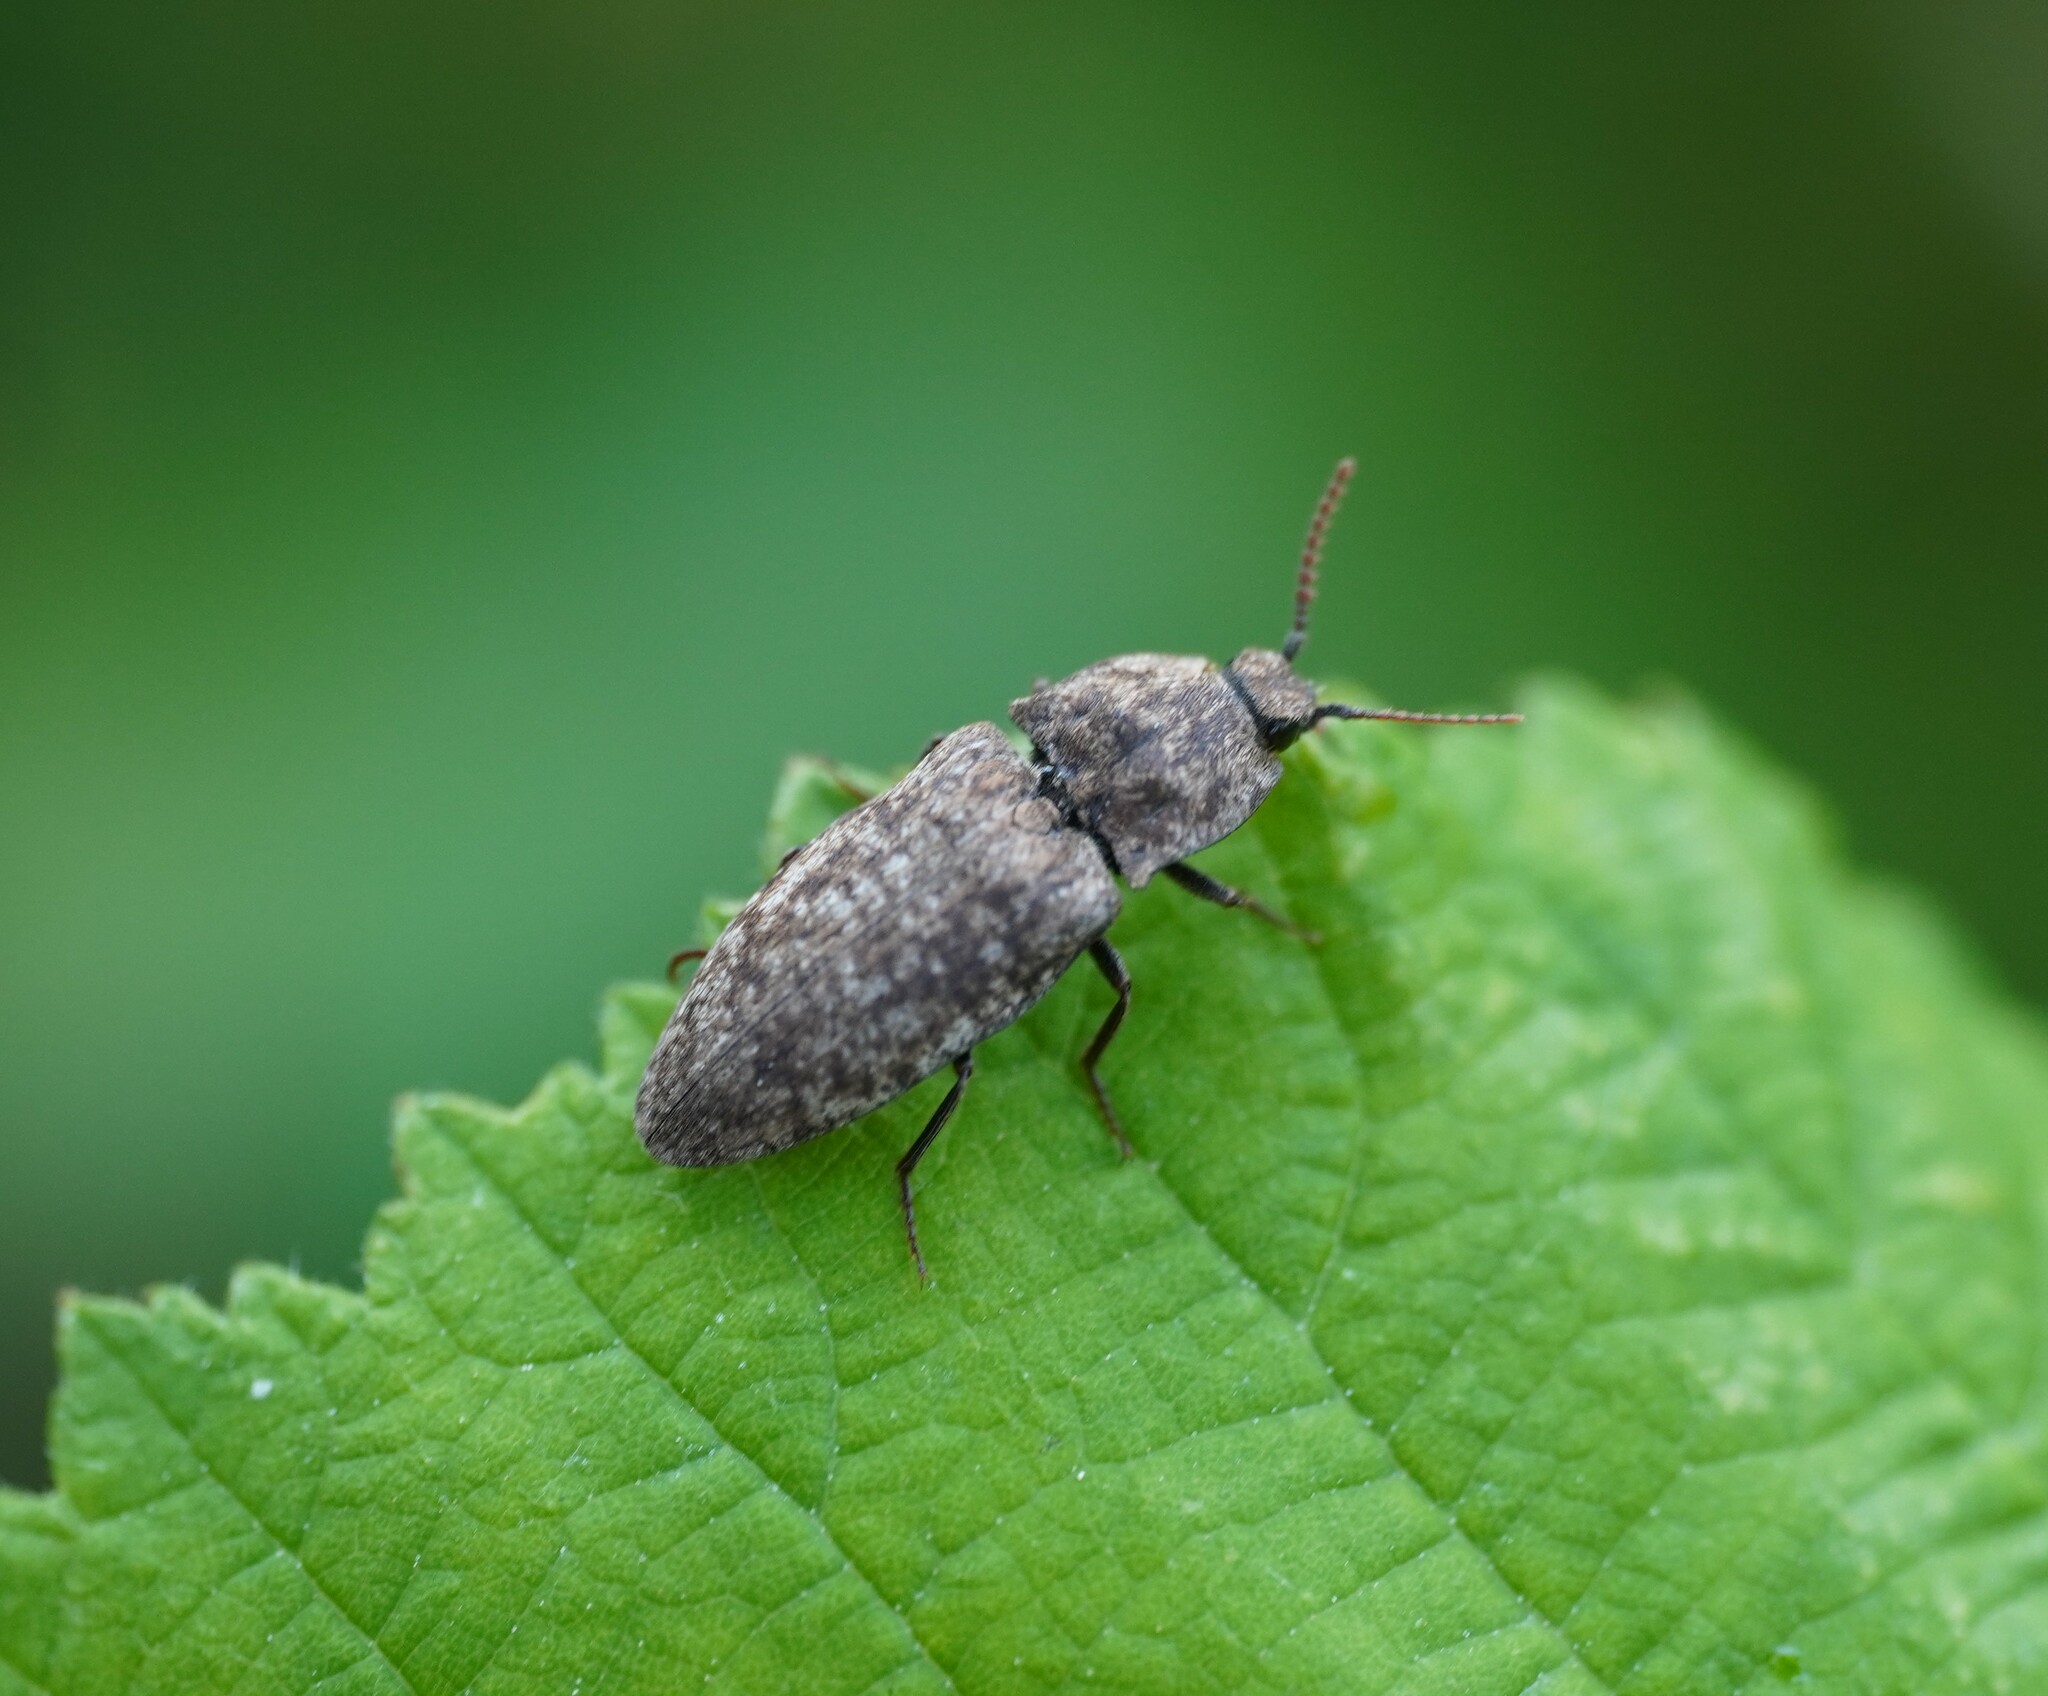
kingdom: Animalia
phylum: Arthropoda
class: Insecta
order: Coleoptera
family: Elateridae
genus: Agrypnus
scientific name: Agrypnus murinus
